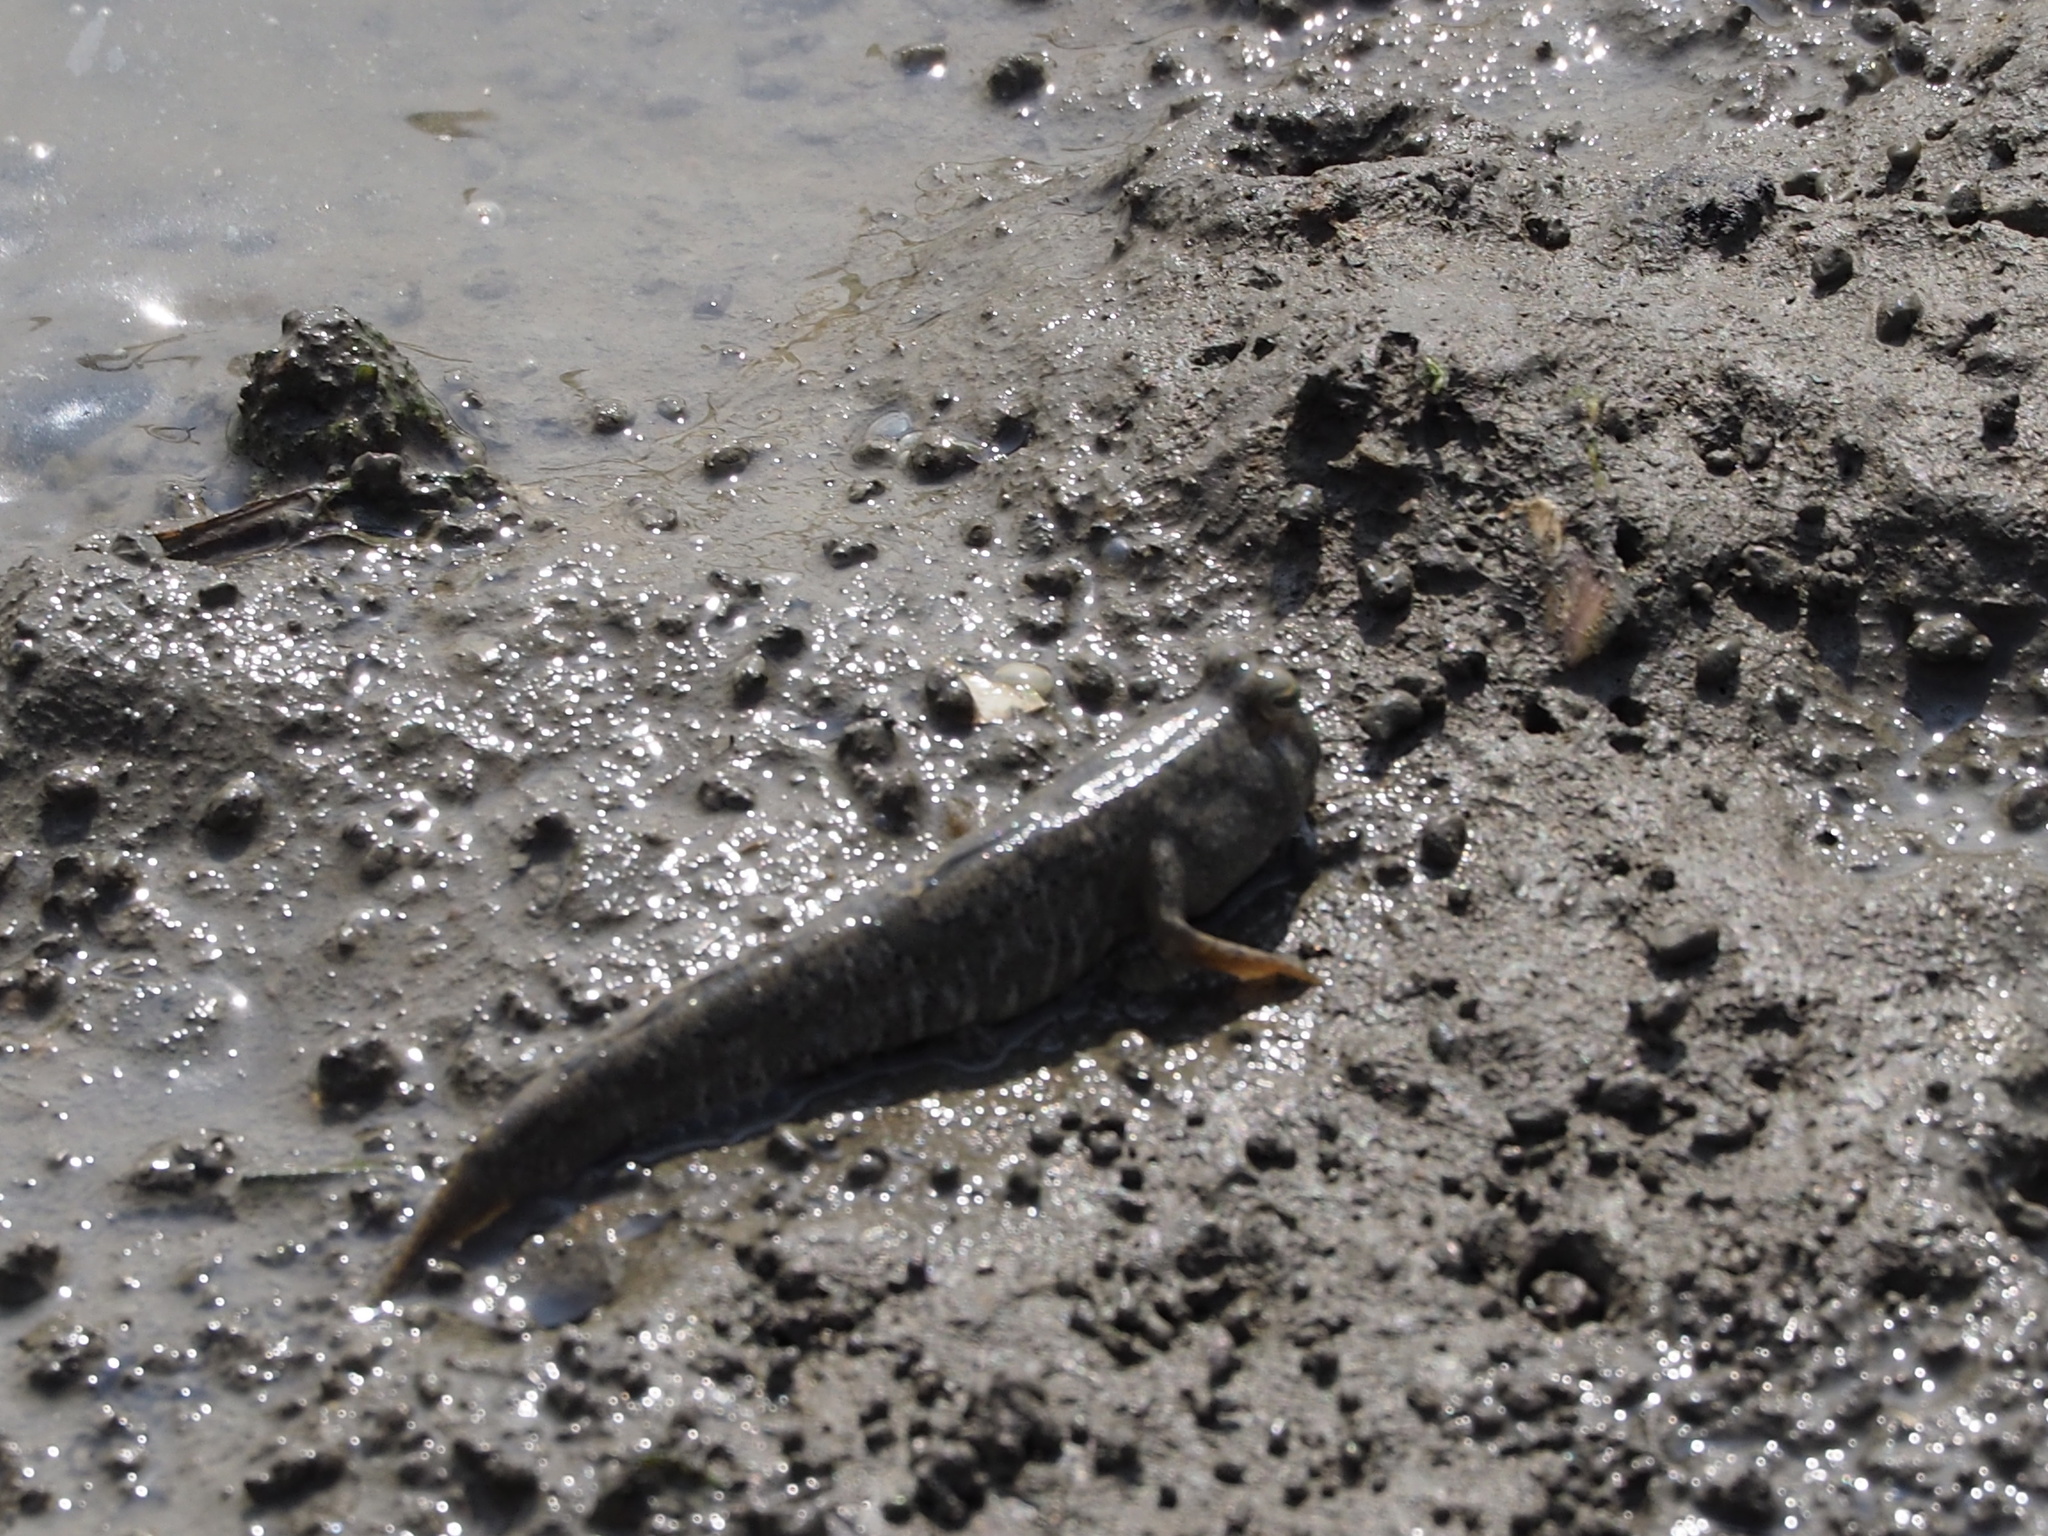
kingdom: Animalia
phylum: Chordata
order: Perciformes
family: Gobiidae
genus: Periophthalmus
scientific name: Periophthalmus modestus
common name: Black goby
